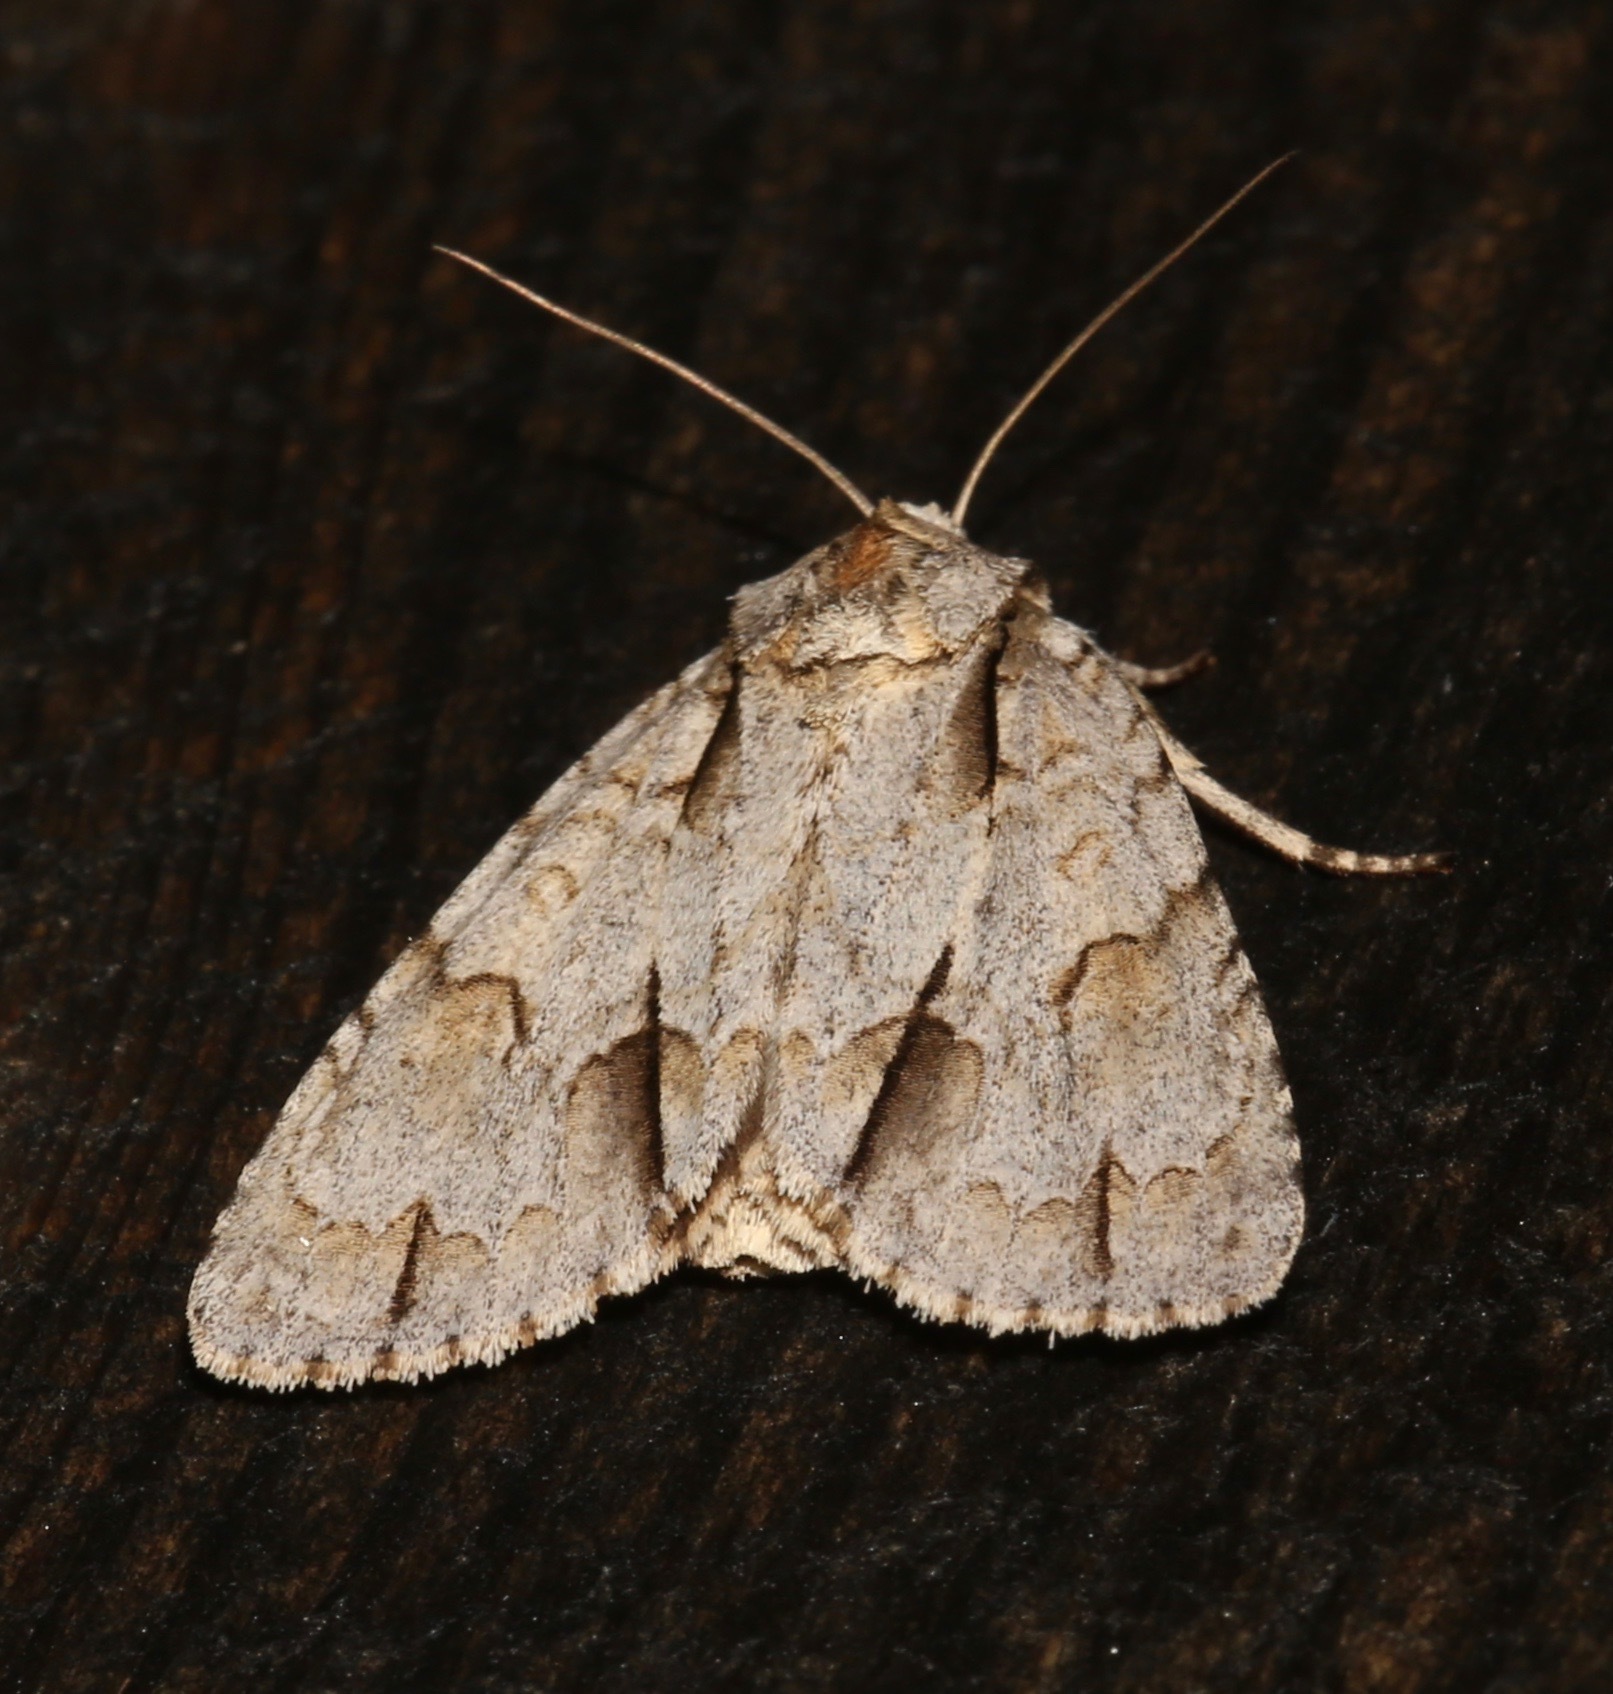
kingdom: Animalia
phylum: Arthropoda
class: Insecta
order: Lepidoptera
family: Noctuidae
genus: Acronicta
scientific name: Acronicta morula
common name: Ochre dagger
